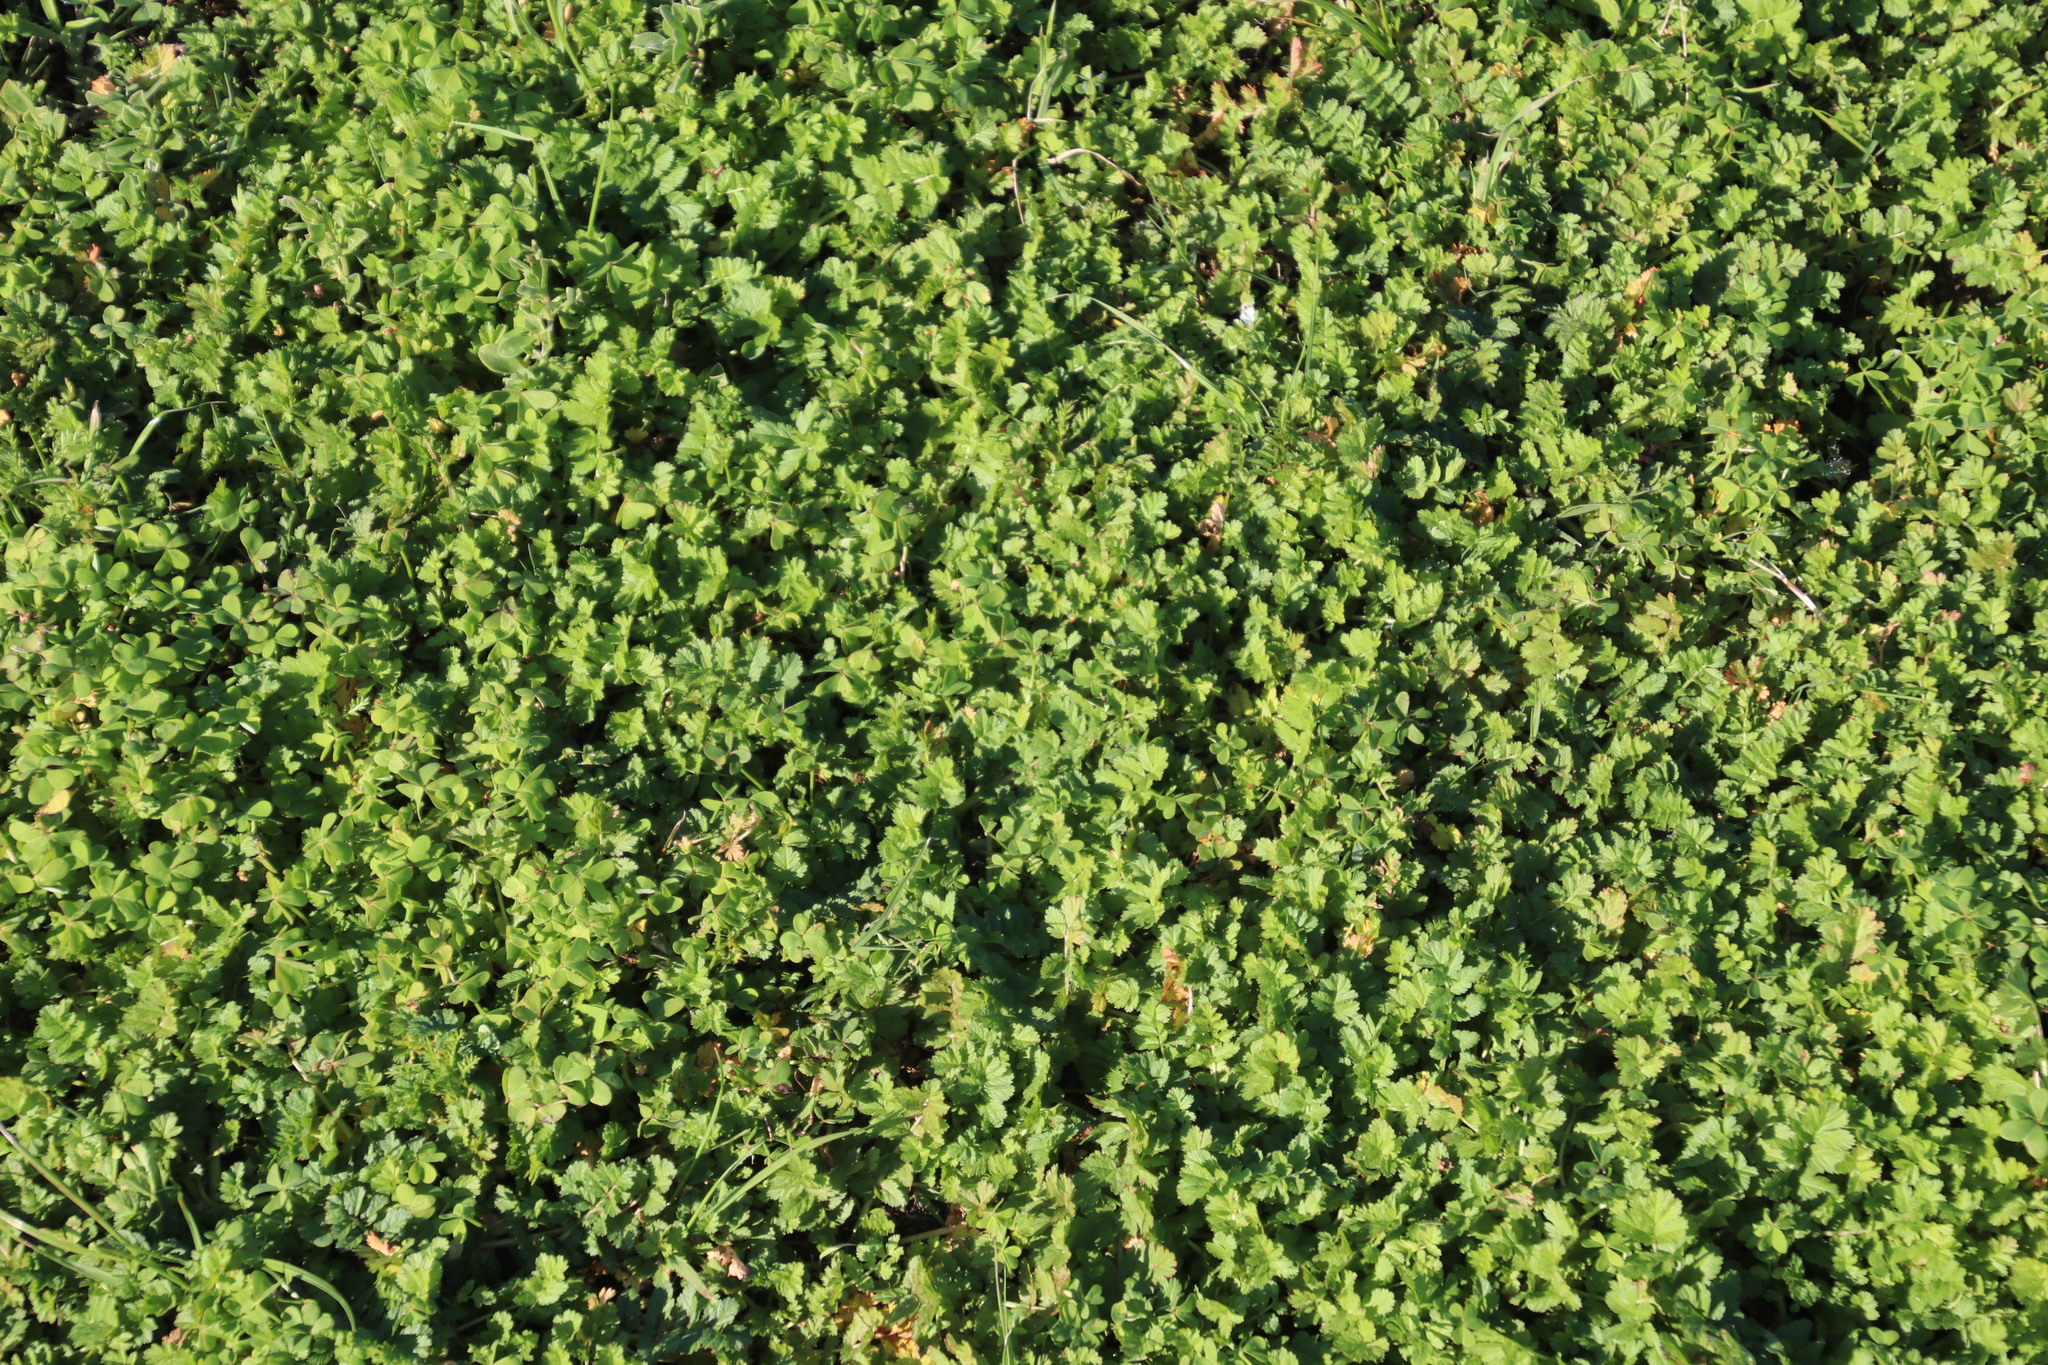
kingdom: Plantae
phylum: Tracheophyta
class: Magnoliopsida
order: Geraniales
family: Geraniaceae
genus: Erodium
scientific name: Erodium moschatum
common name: Musk stork's-bill
